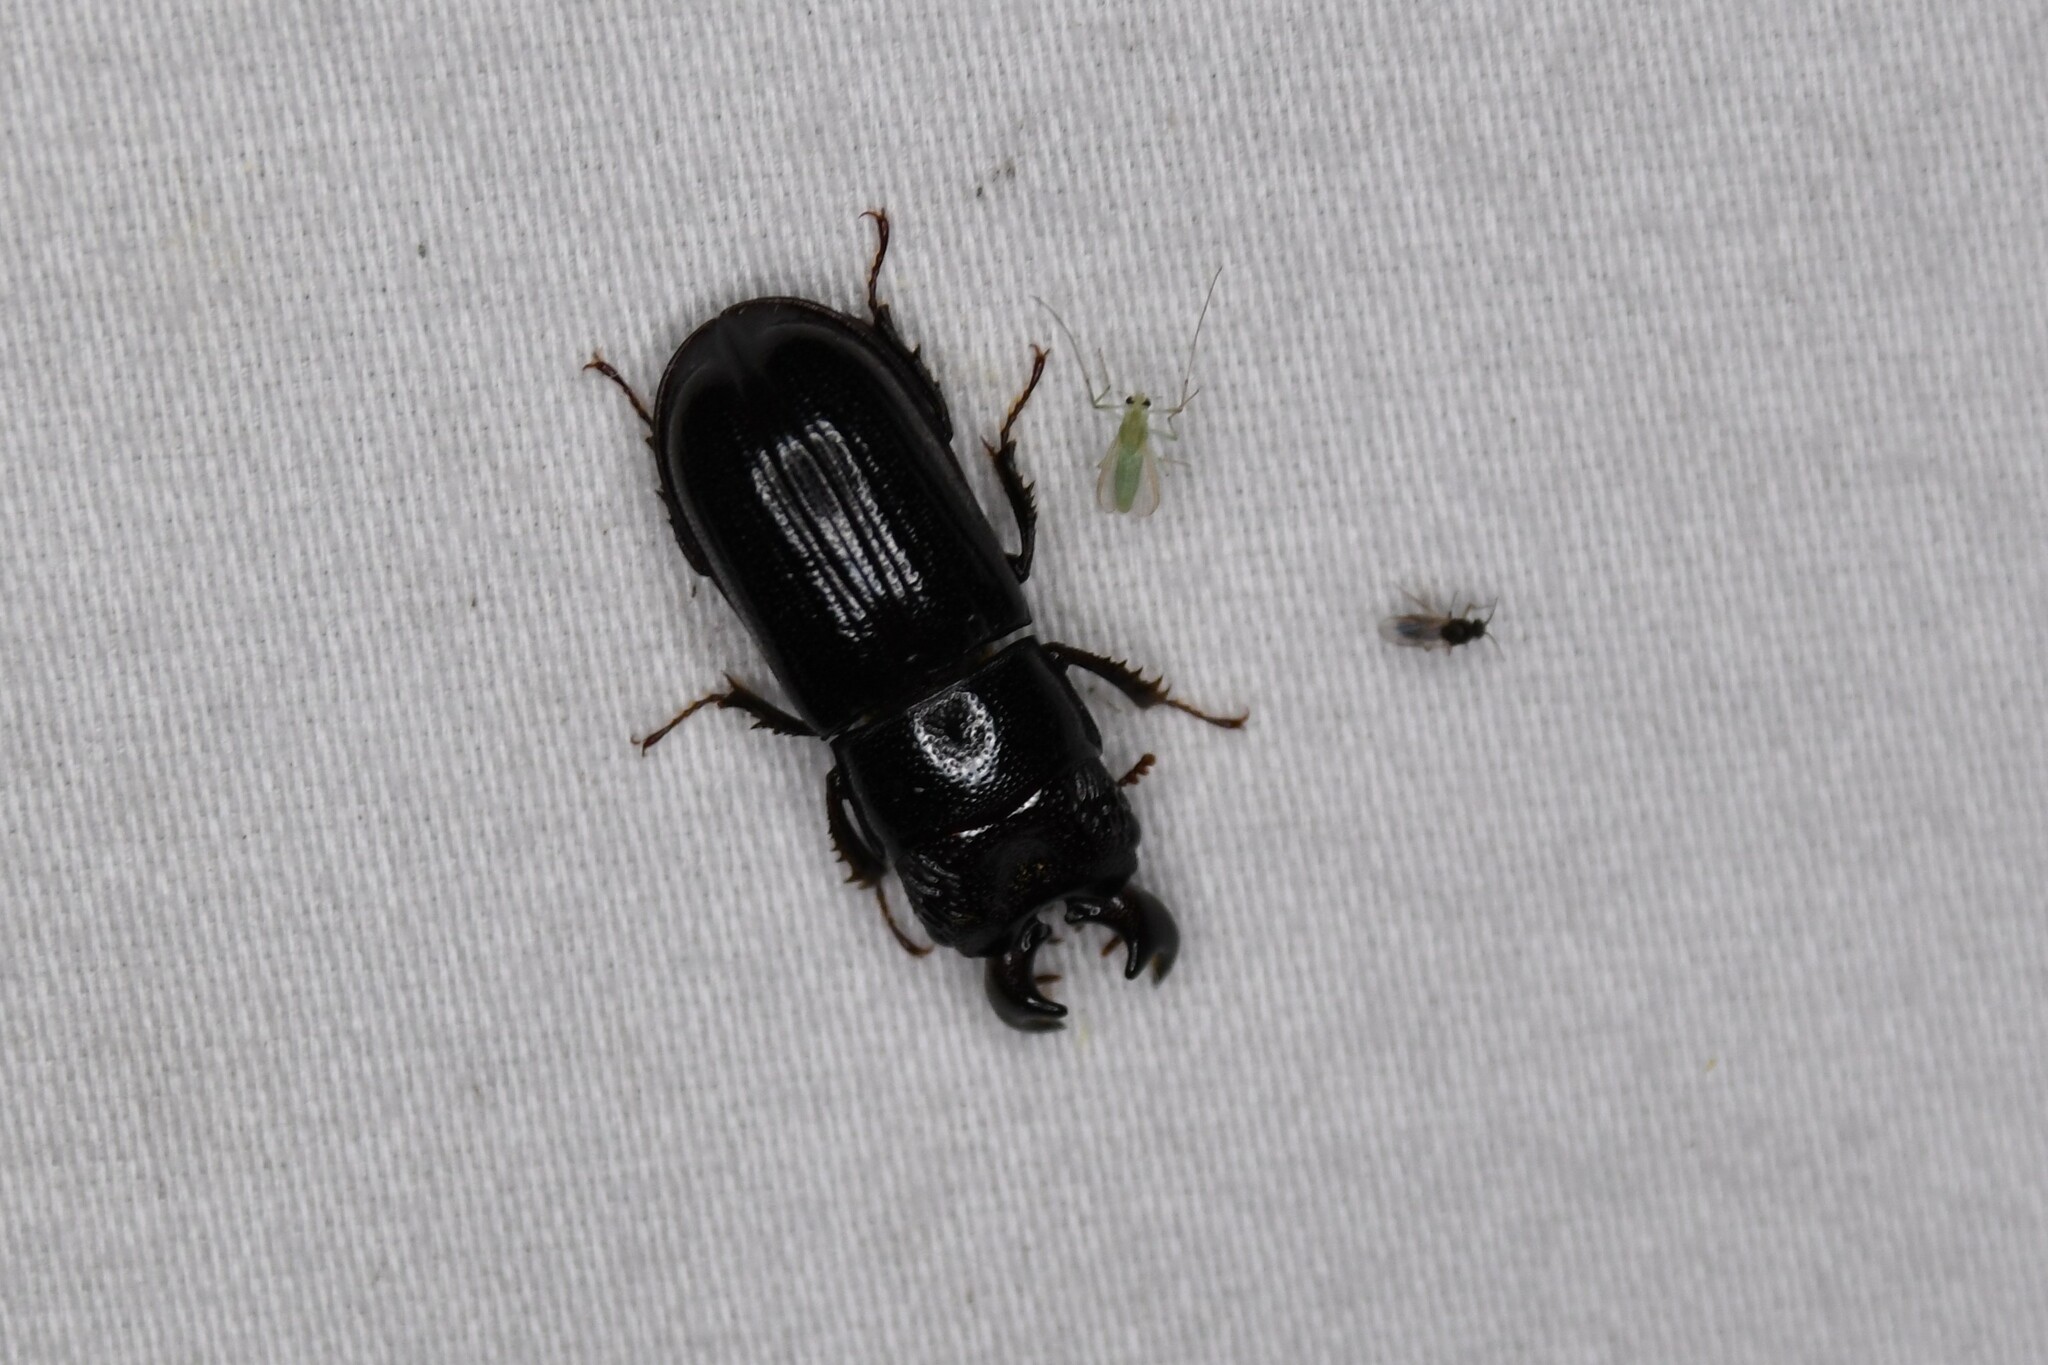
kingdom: Animalia
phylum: Arthropoda
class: Insecta
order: Coleoptera
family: Lucanidae
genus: Ceruchus
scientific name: Ceruchus piceus
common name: Red-rot decay stag beetle
